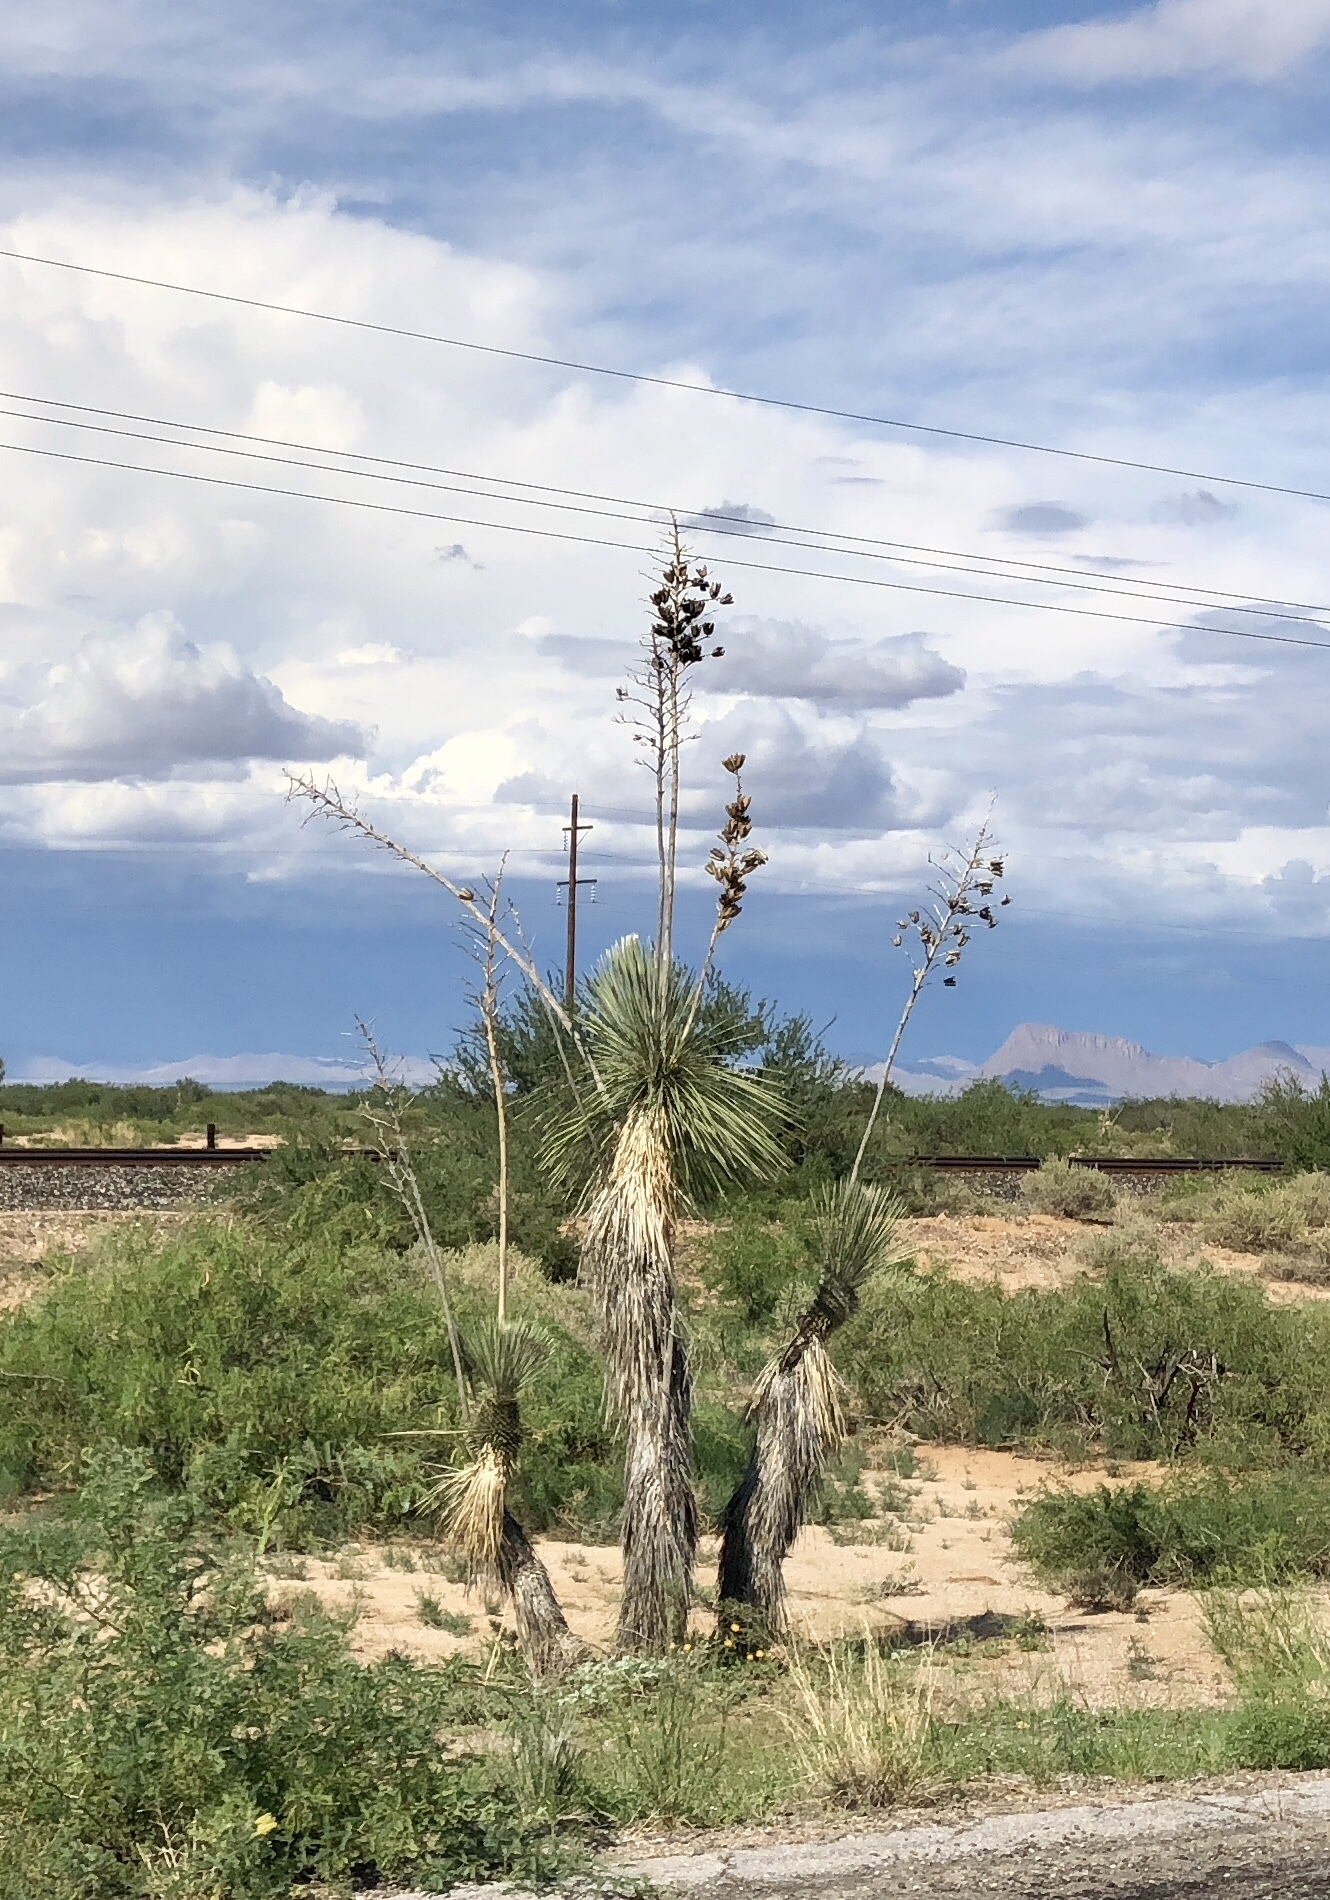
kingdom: Plantae
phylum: Tracheophyta
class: Liliopsida
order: Asparagales
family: Asparagaceae
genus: Yucca
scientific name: Yucca elata
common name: Palmella
